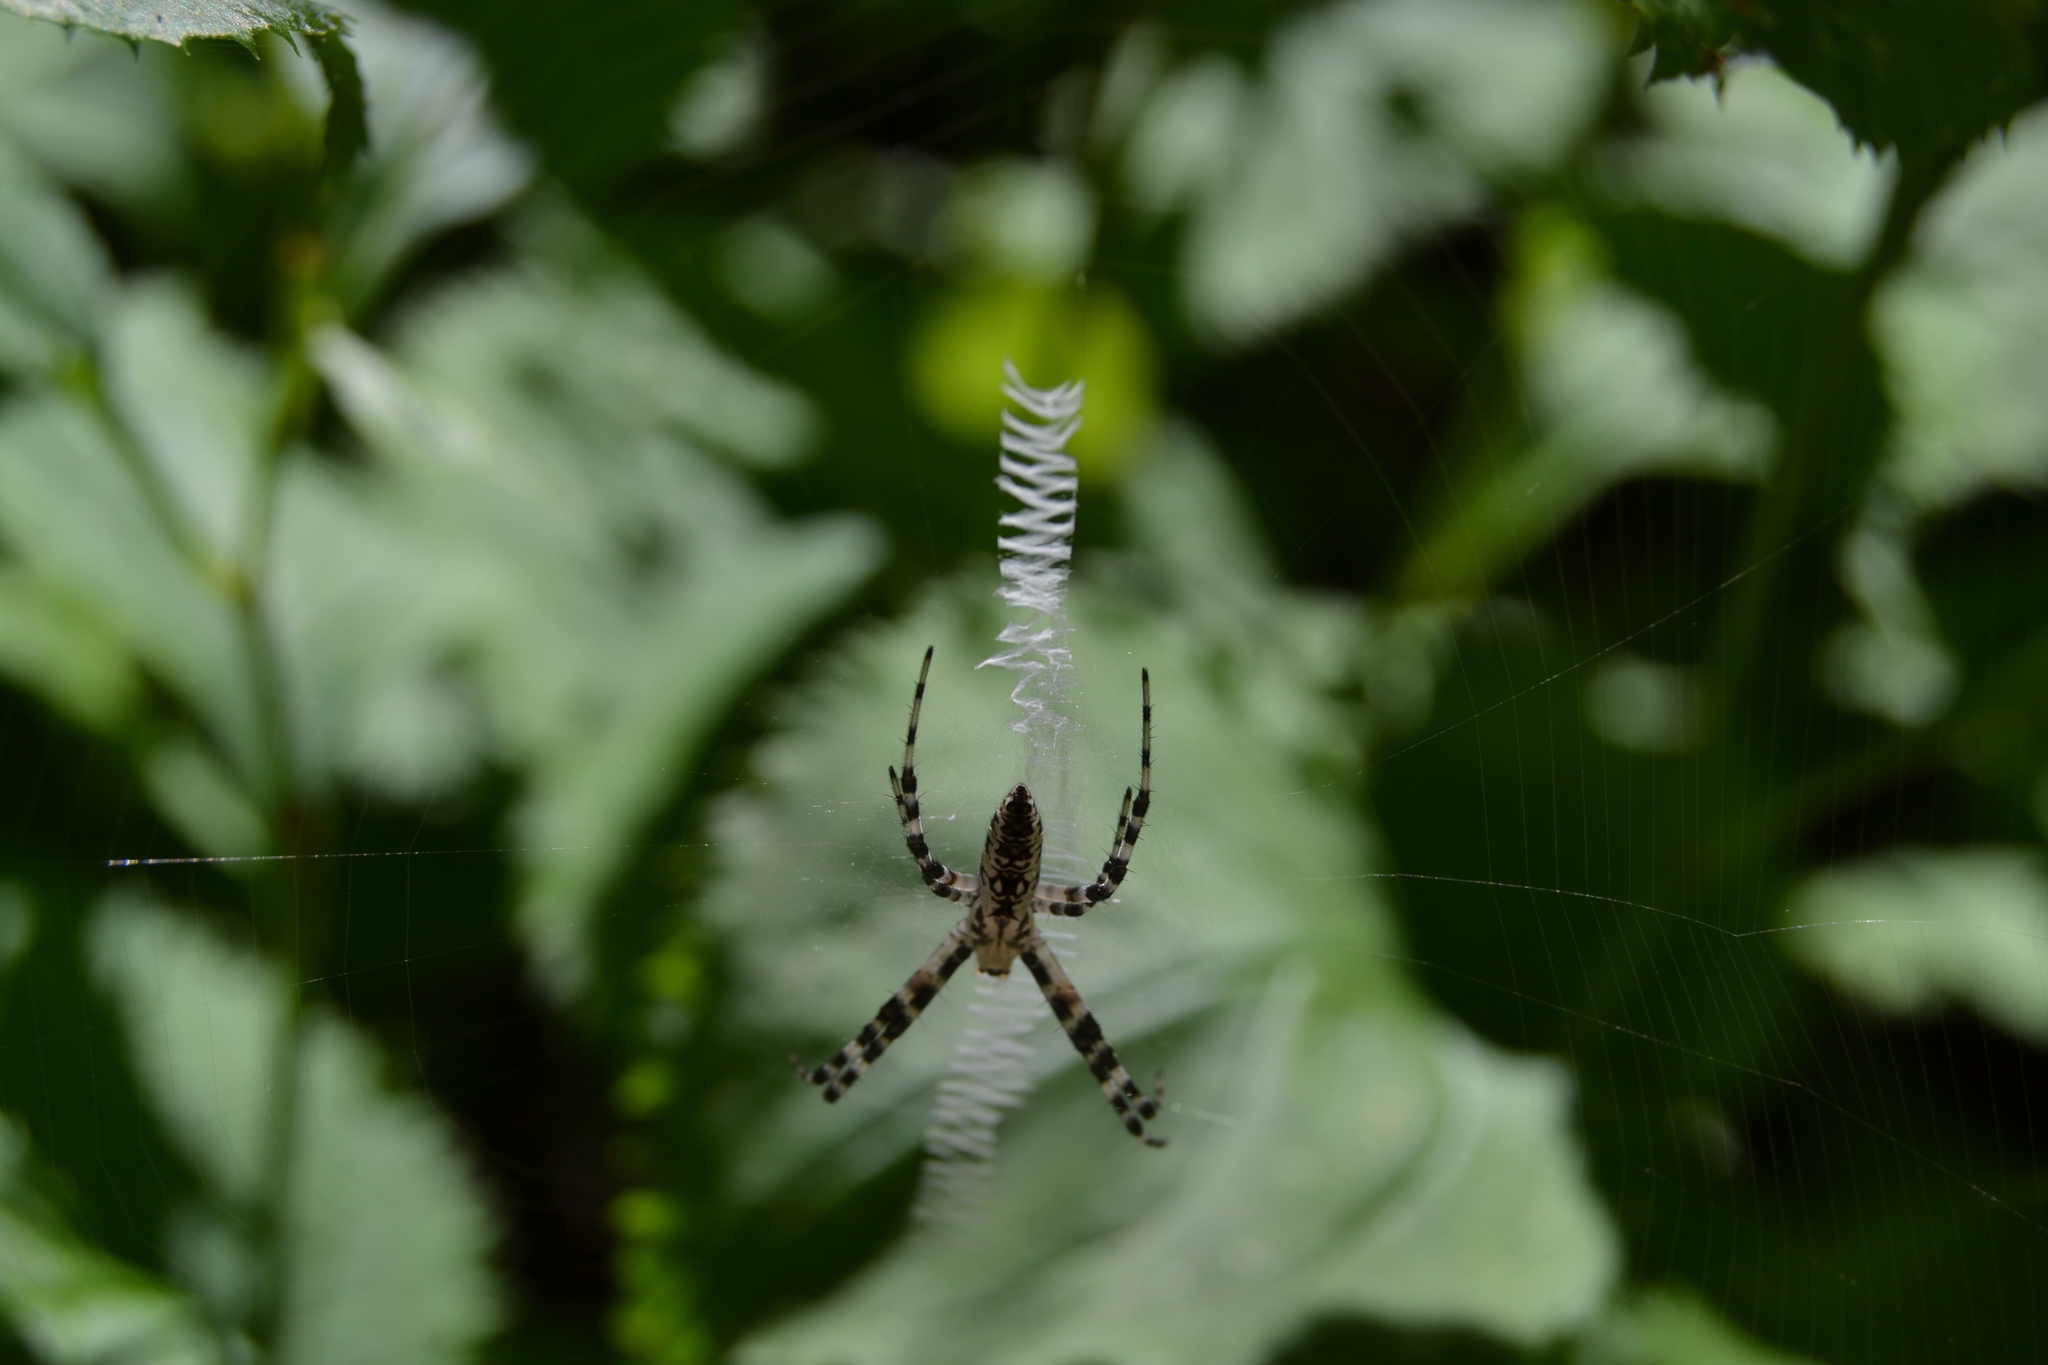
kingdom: Animalia
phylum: Arthropoda
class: Arachnida
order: Araneae
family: Araneidae
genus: Argiope
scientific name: Argiope aurantia
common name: Orb weavers
